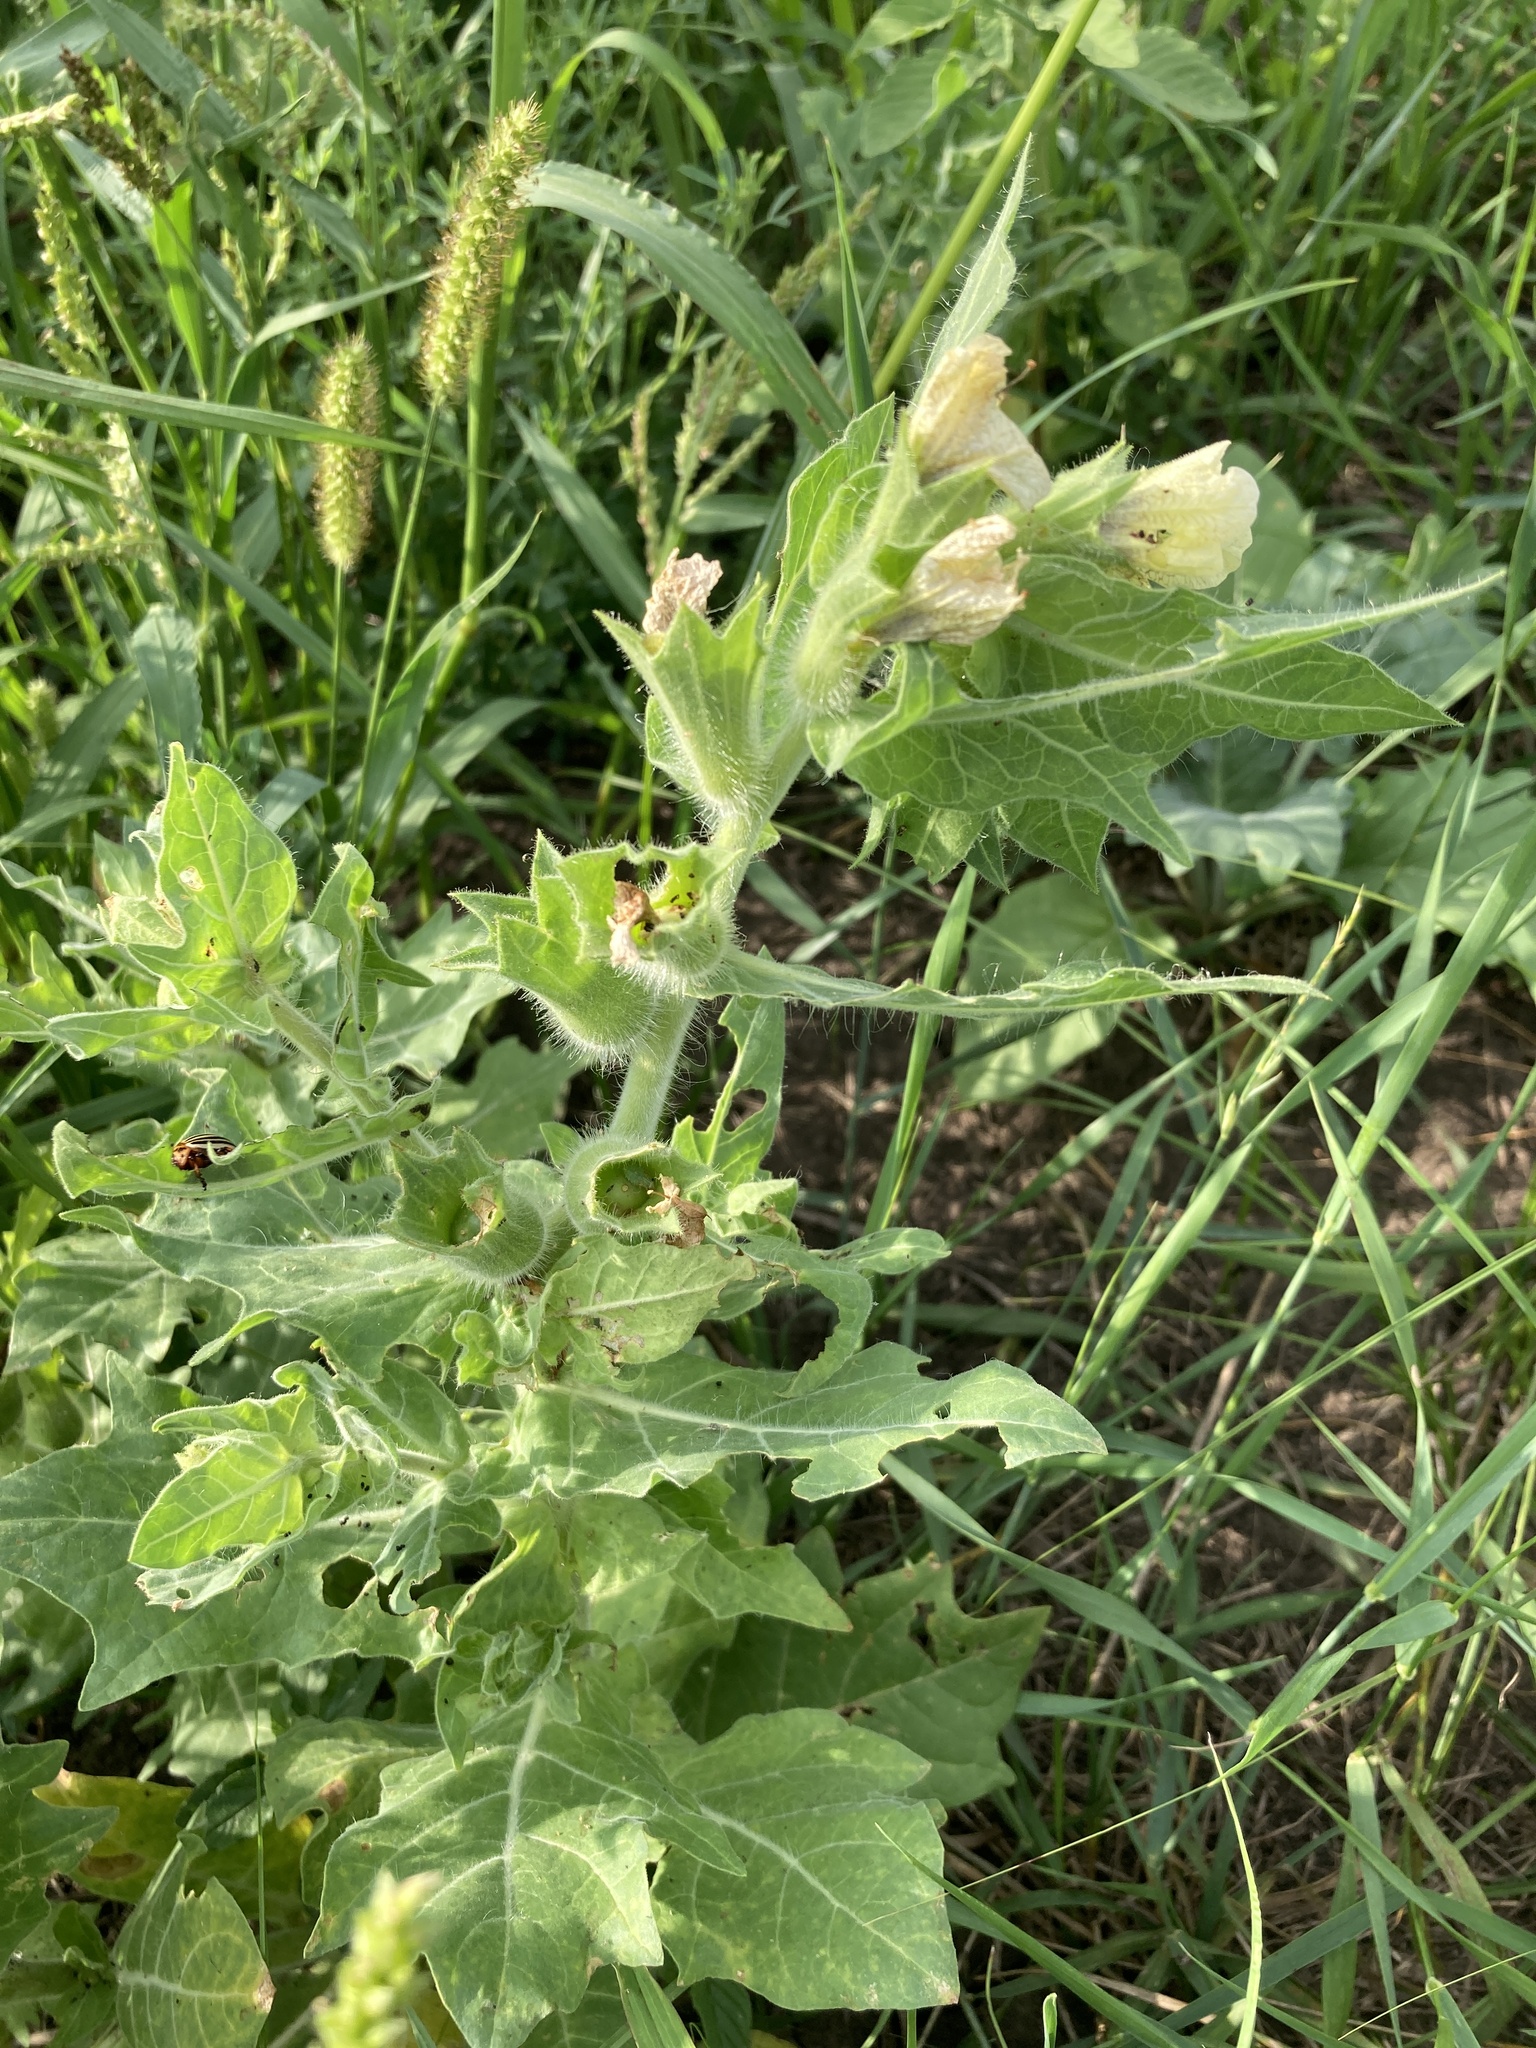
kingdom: Plantae
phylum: Tracheophyta
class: Magnoliopsida
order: Solanales
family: Solanaceae
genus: Hyoscyamus
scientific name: Hyoscyamus niger
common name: Henbane
